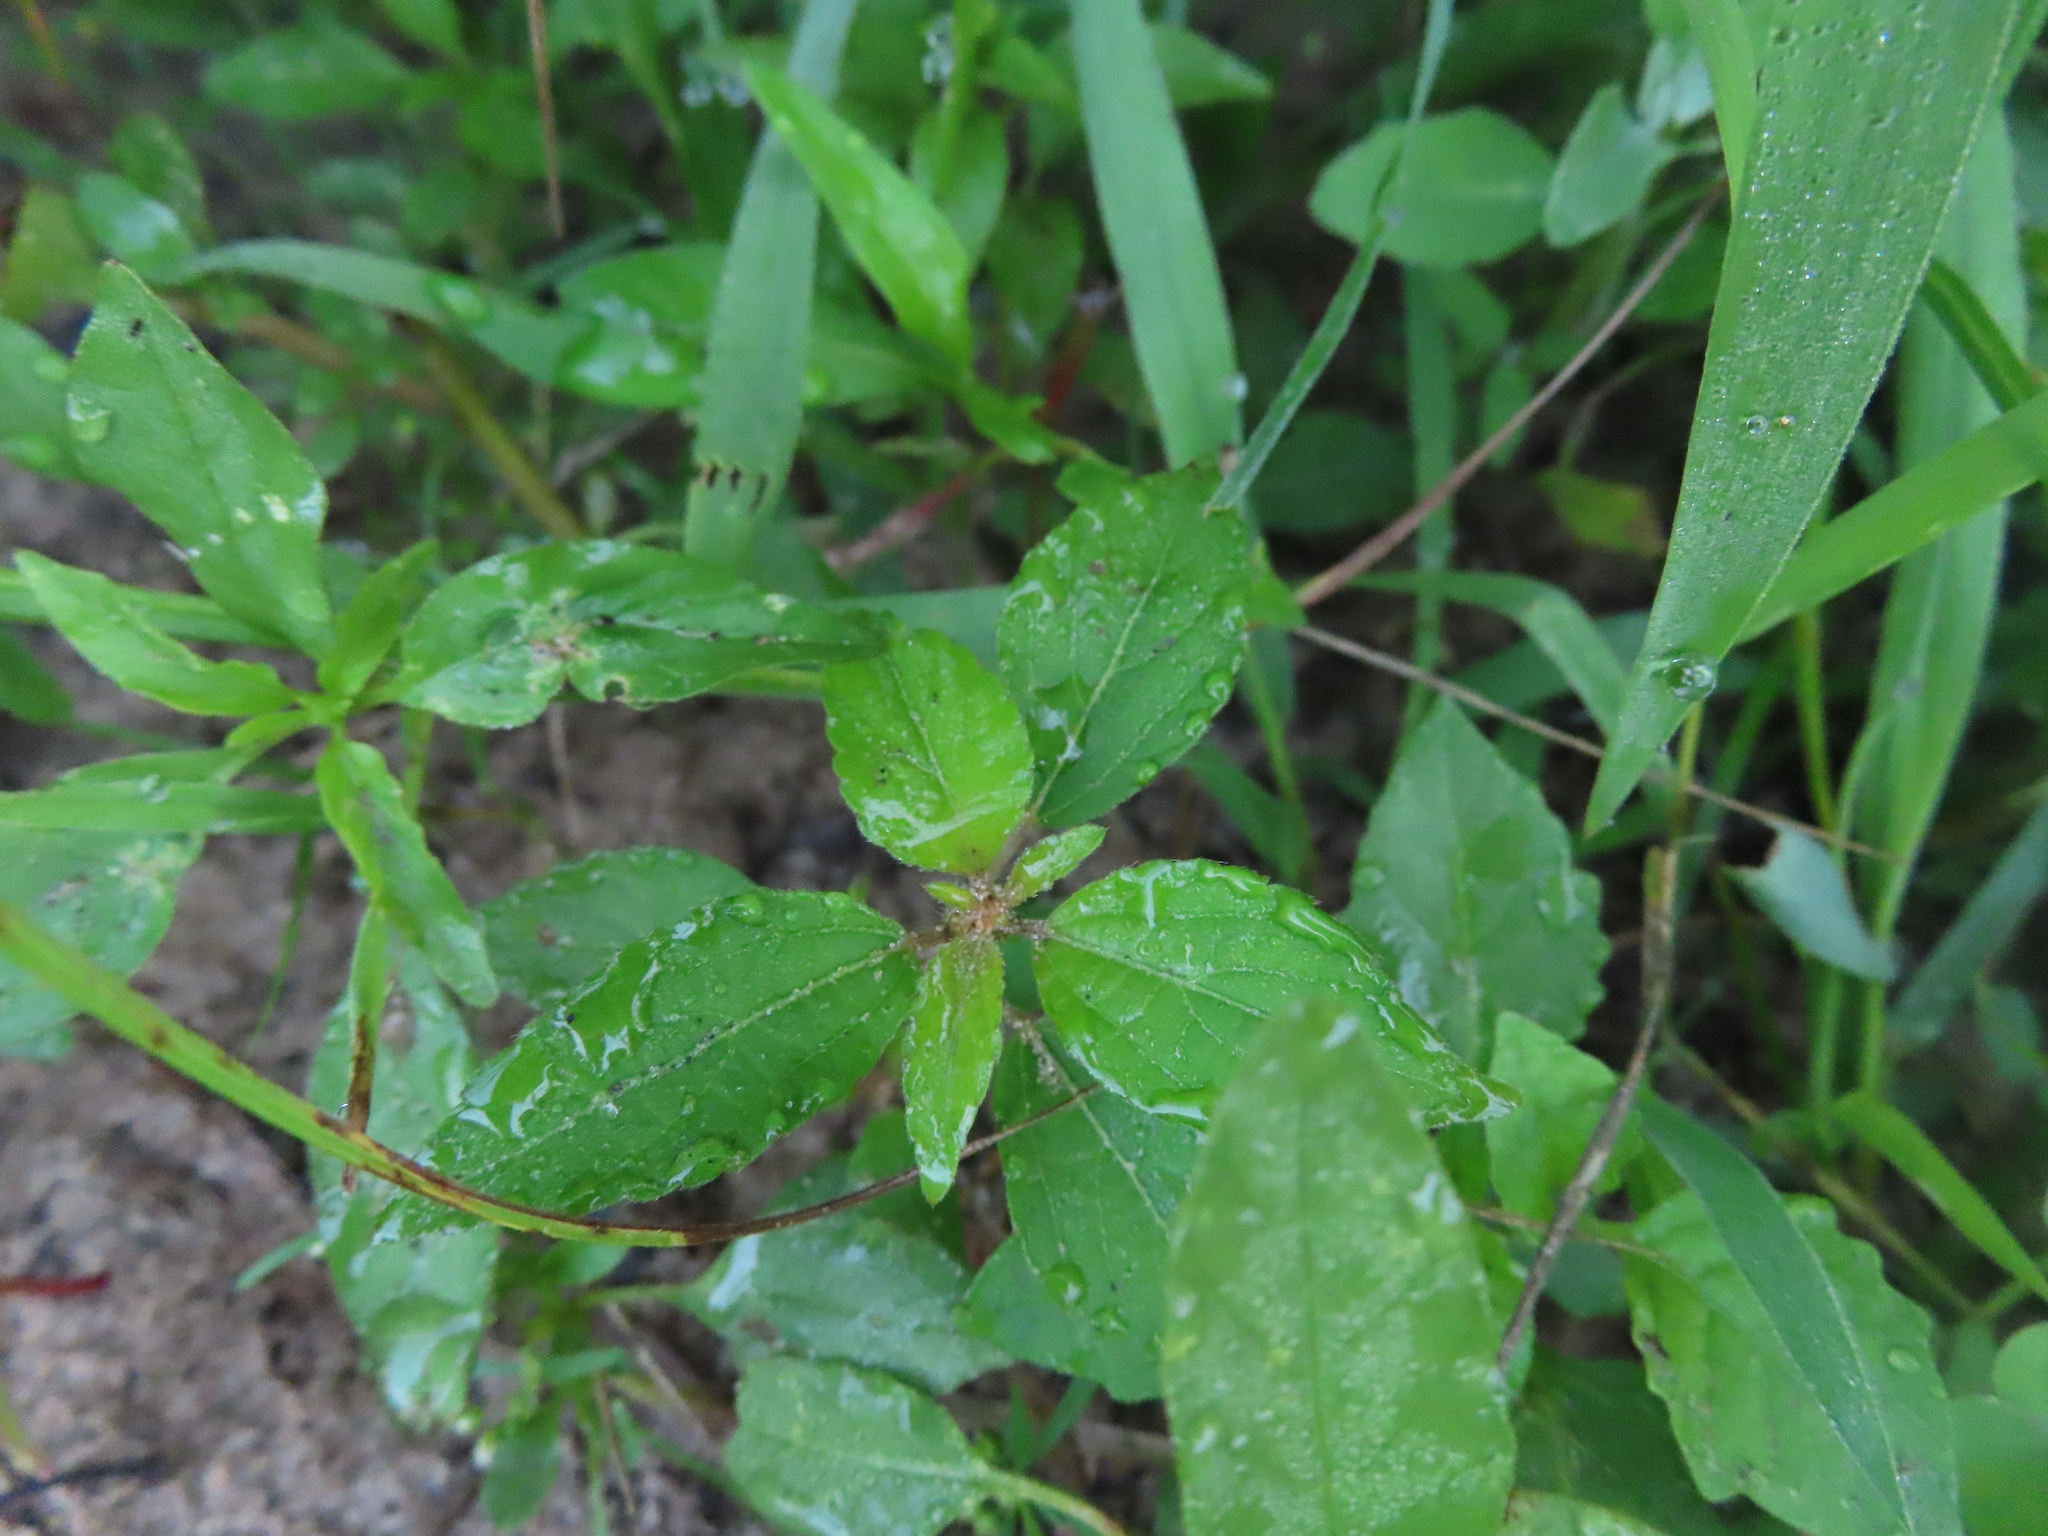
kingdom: Plantae
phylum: Tracheophyta
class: Magnoliopsida
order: Malpighiales
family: Euphorbiaceae
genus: Acalypha
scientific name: Acalypha rhomboidea
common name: Rhombic copperleaf
